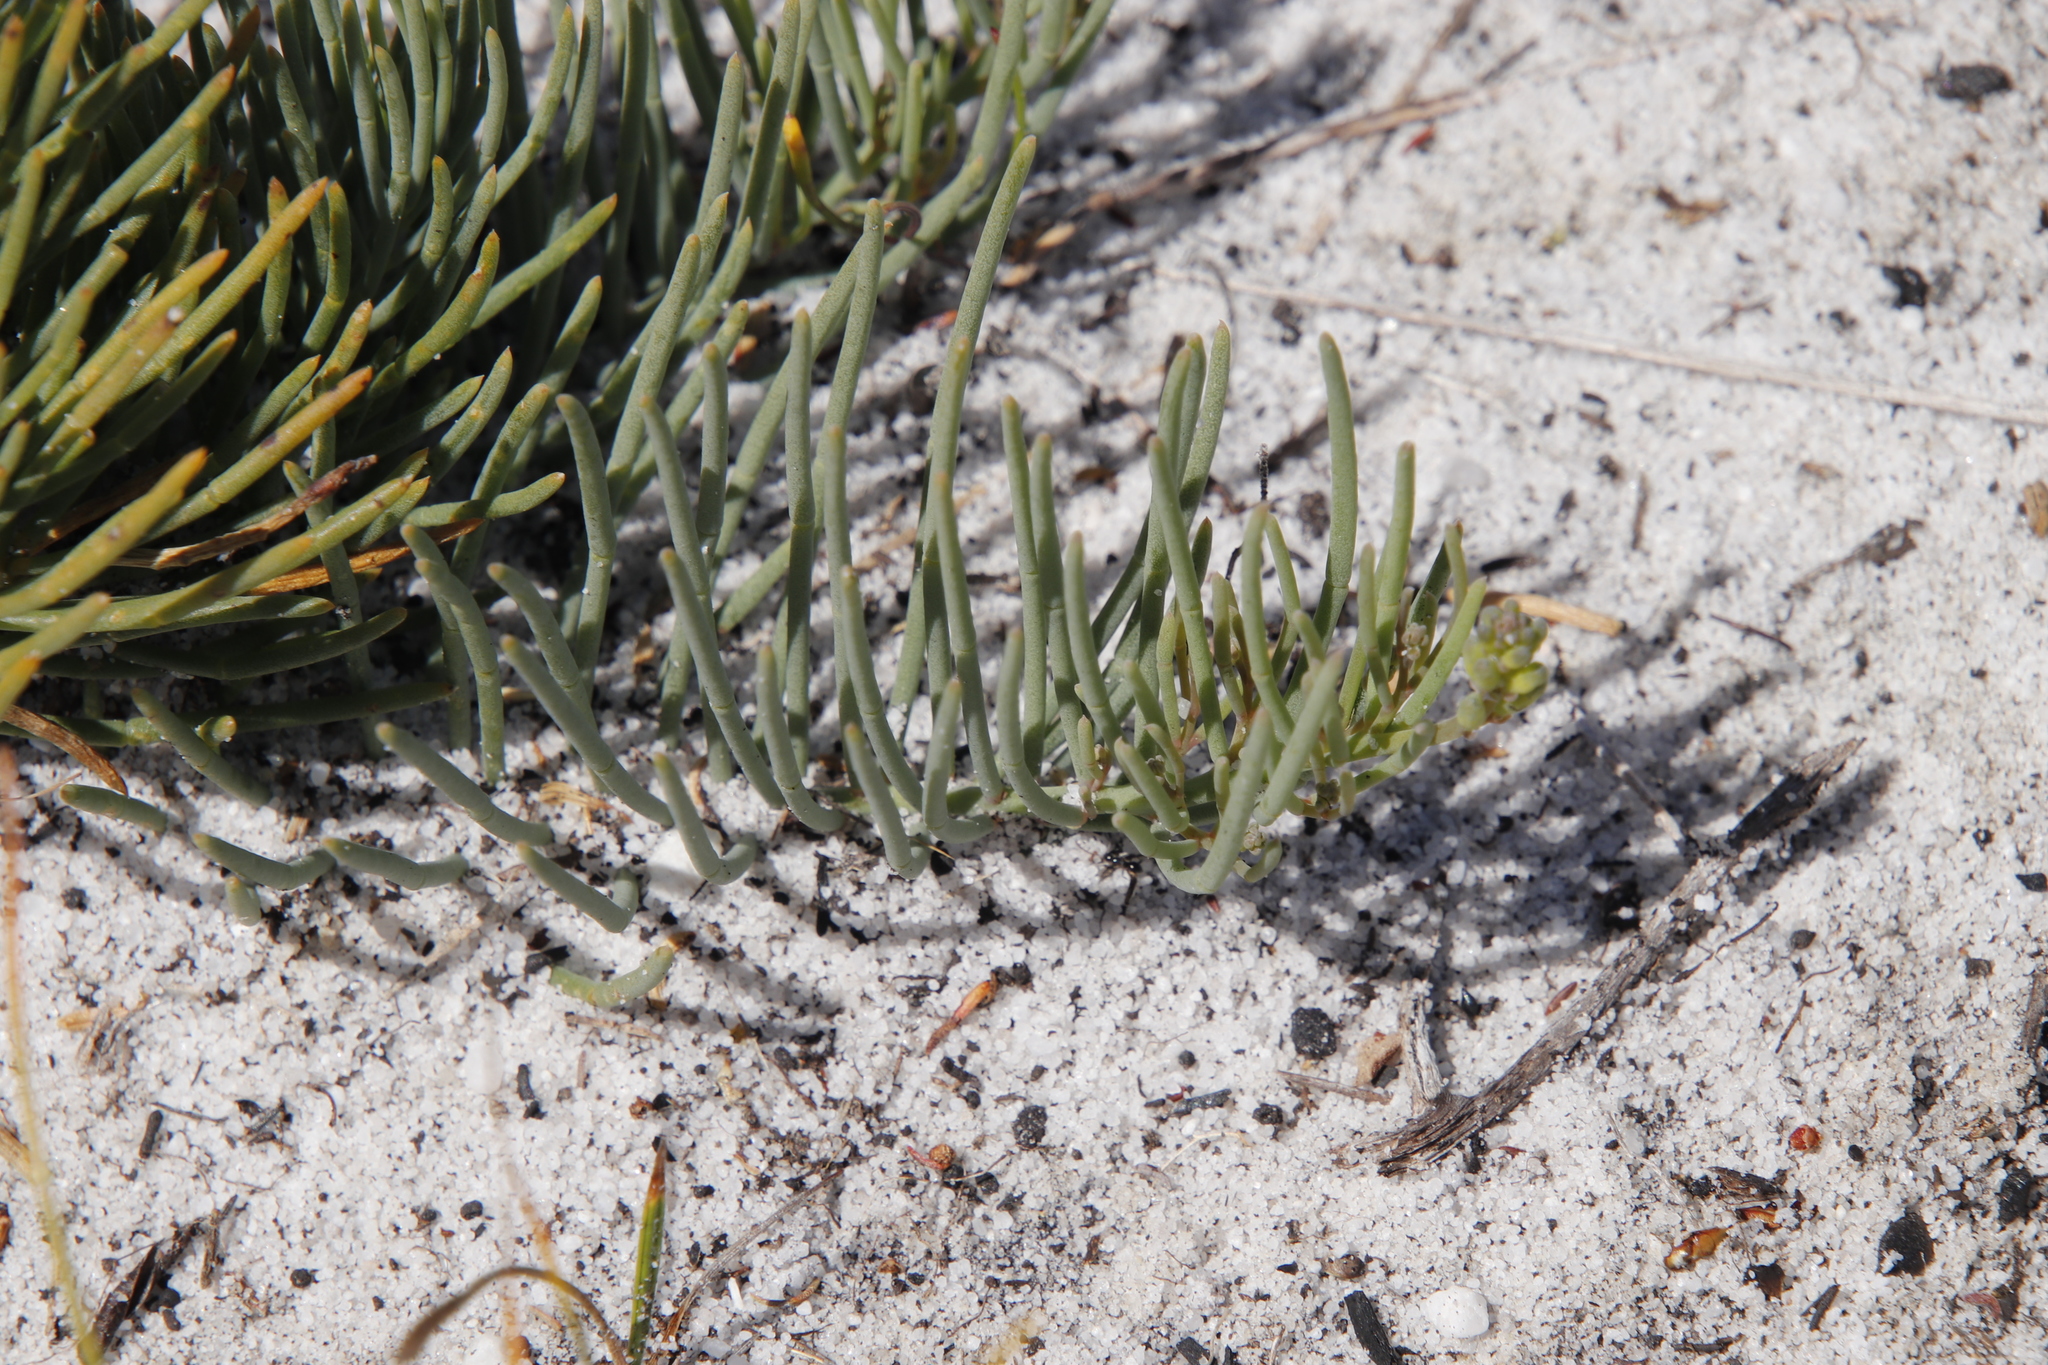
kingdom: Plantae
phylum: Tracheophyta
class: Magnoliopsida
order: Fabales
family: Fabaceae
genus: Lebeckia
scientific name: Lebeckia meyeriana
